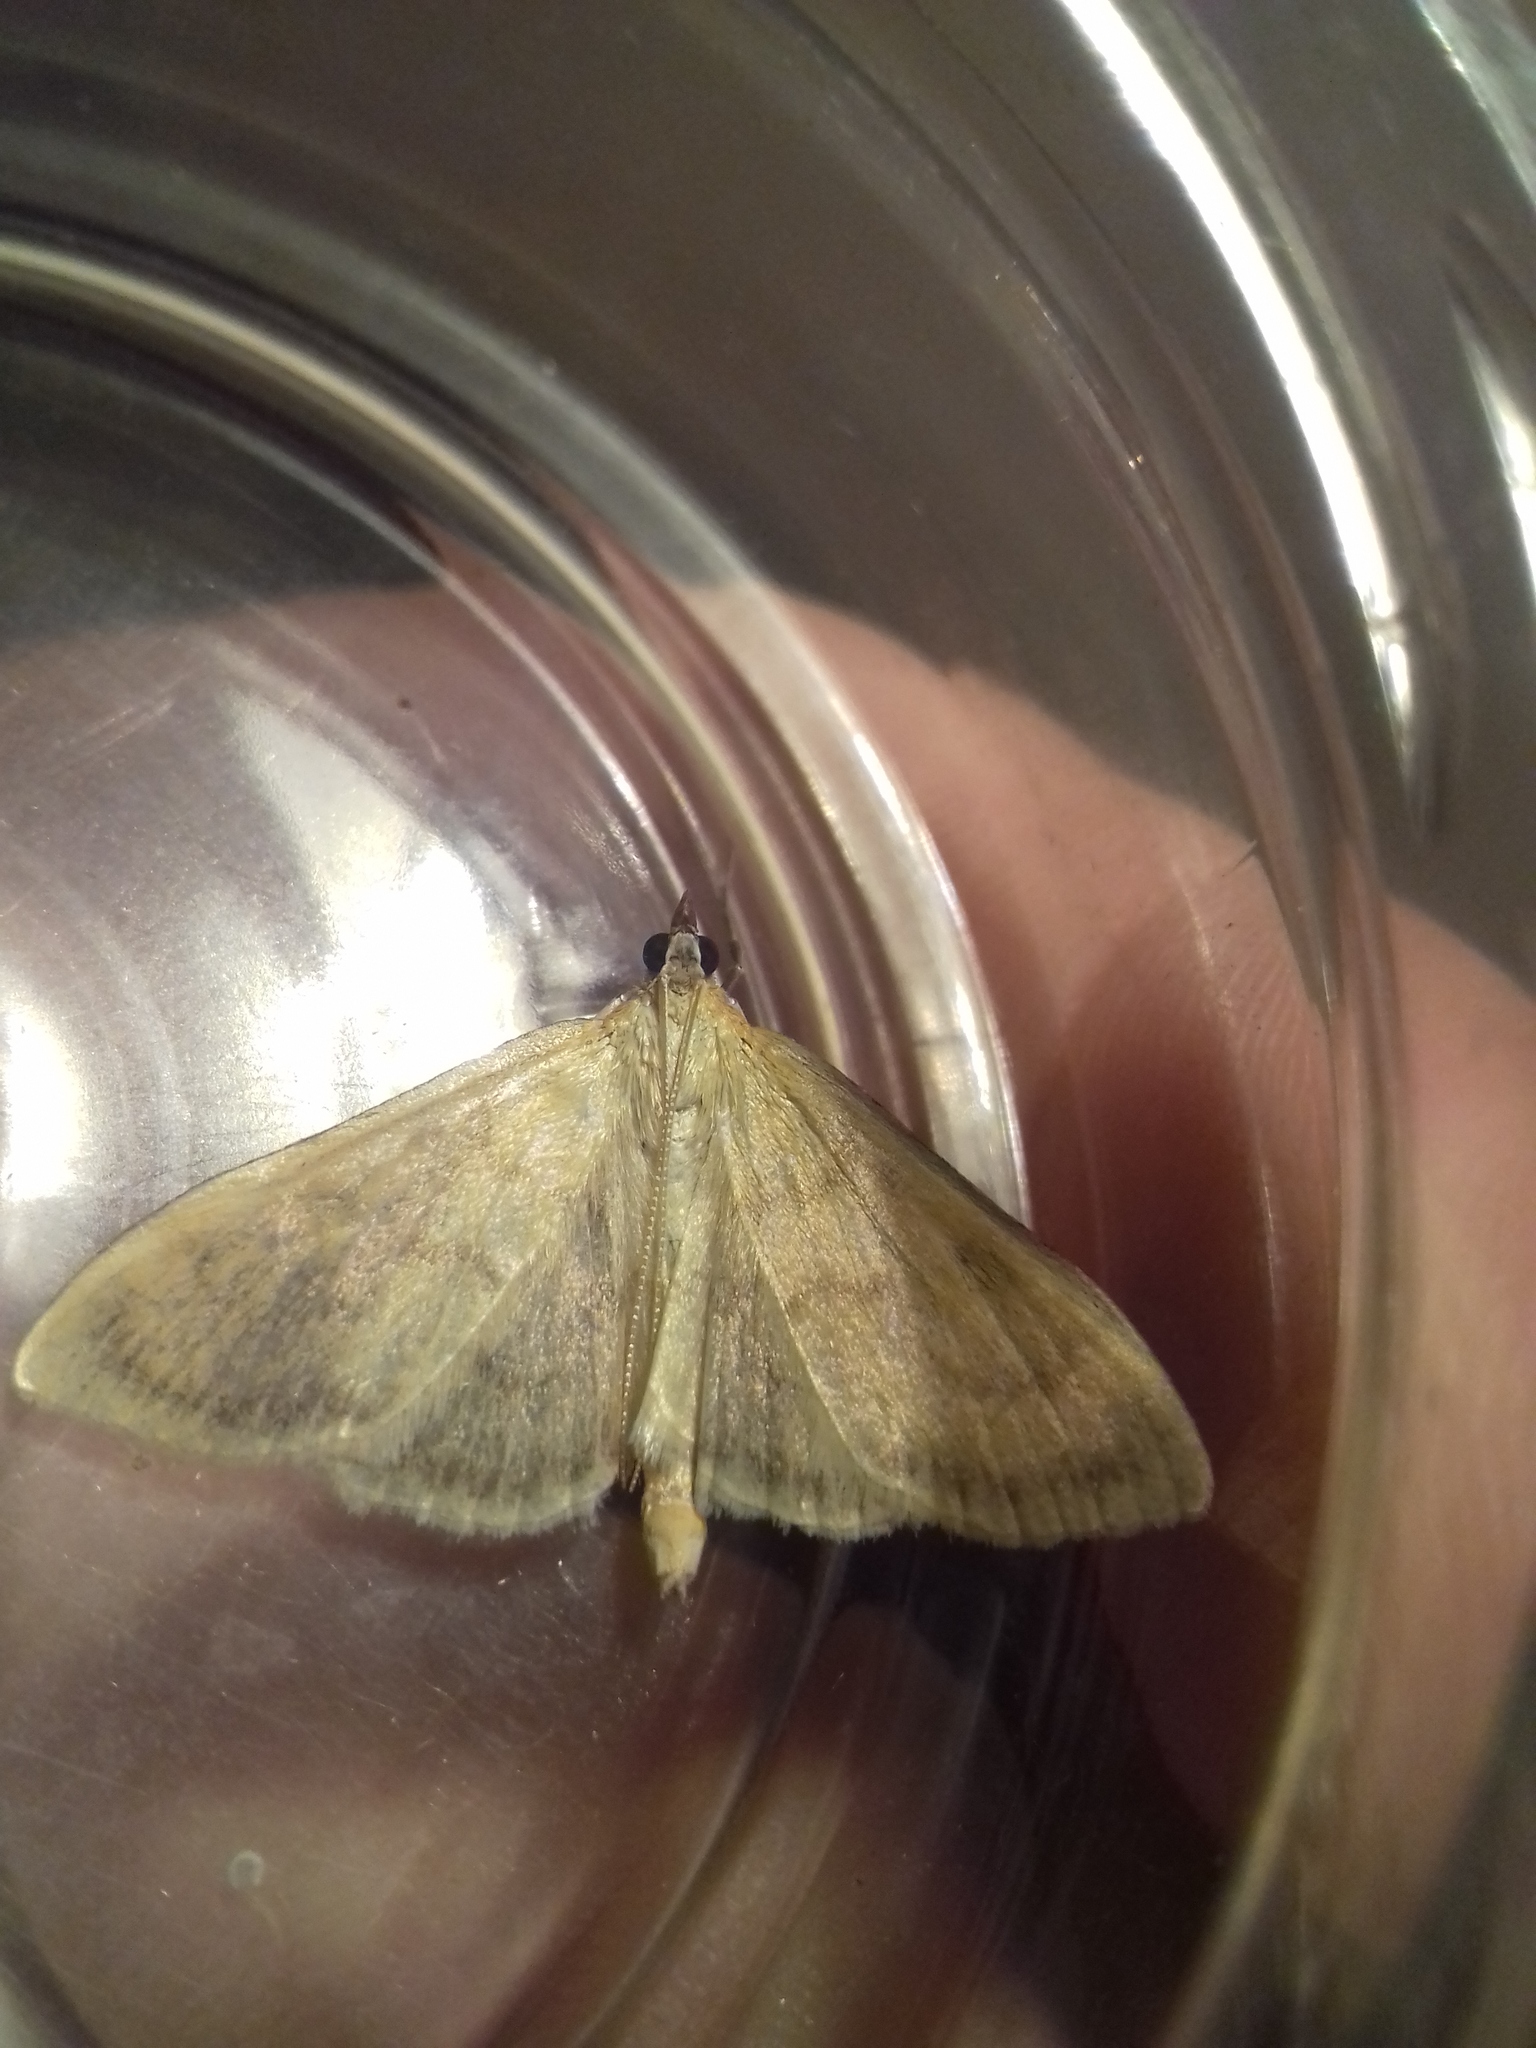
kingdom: Animalia
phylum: Arthropoda
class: Insecta
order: Lepidoptera
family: Crambidae
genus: Paratalanta
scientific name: Paratalanta pandalis
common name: Bordered pearl
